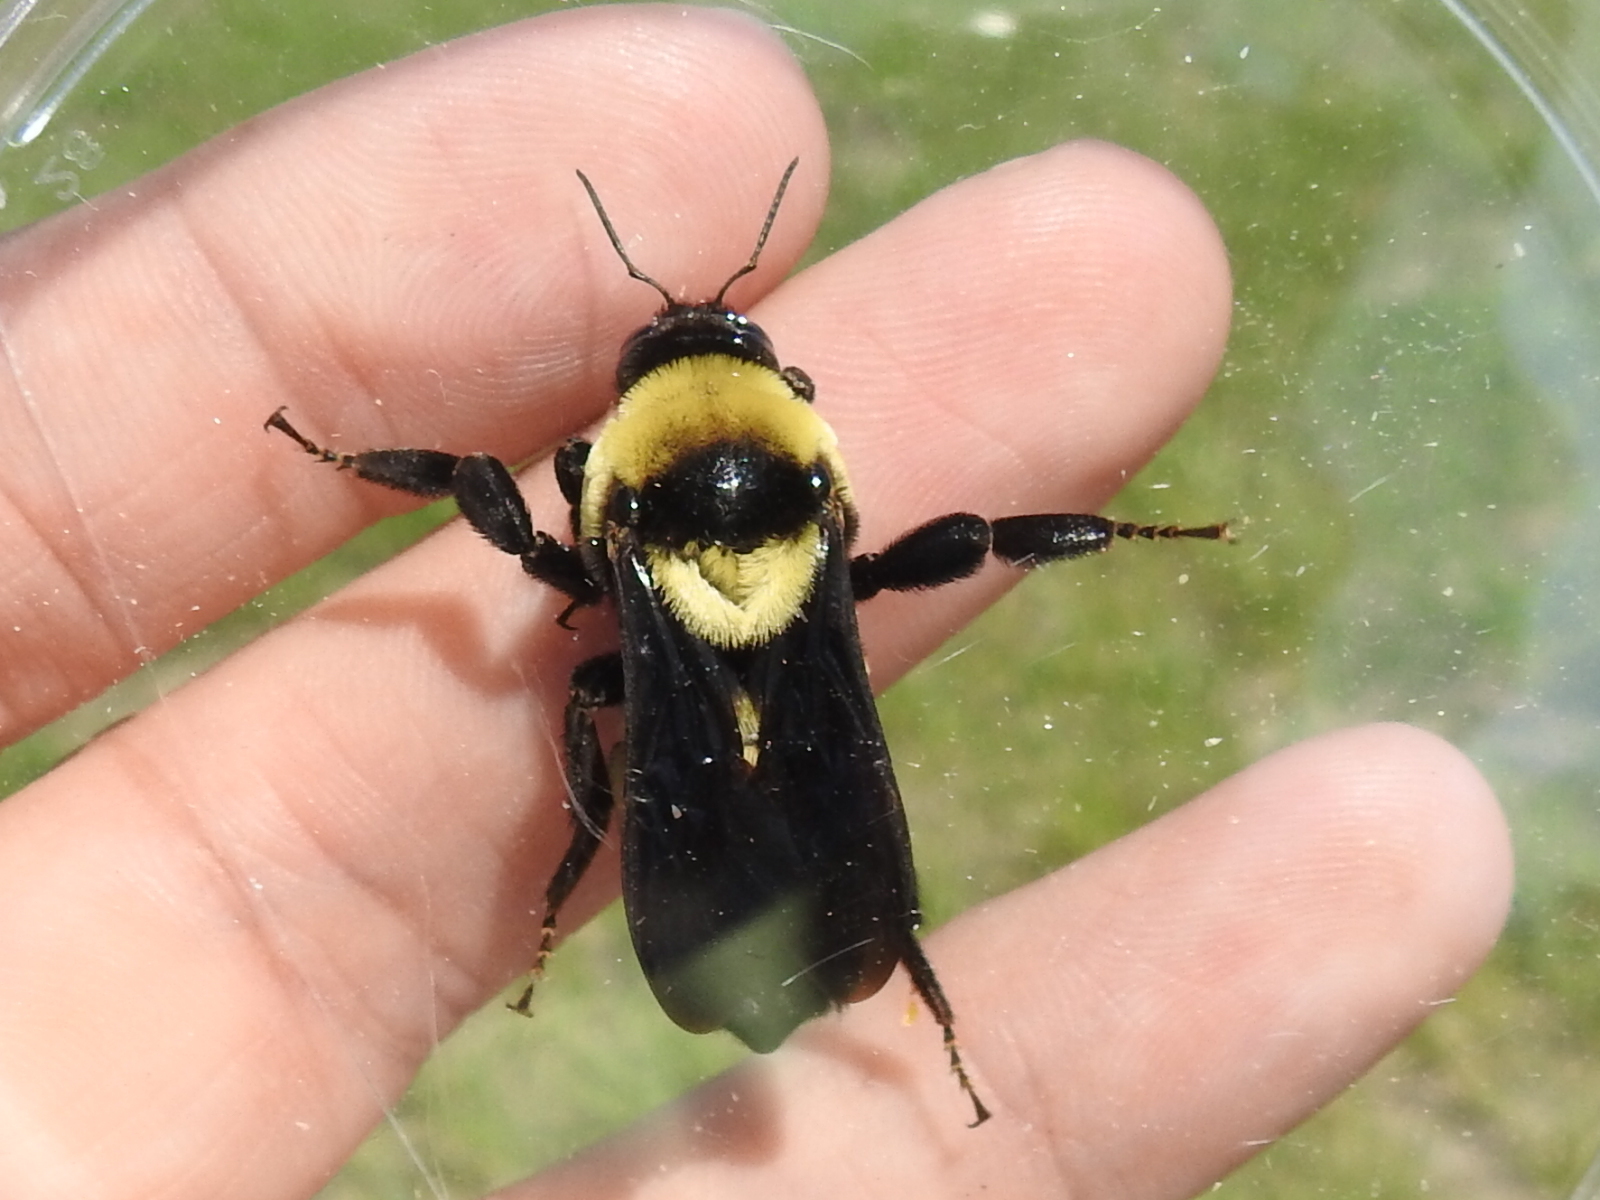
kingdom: Animalia
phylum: Arthropoda
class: Insecta
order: Hymenoptera
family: Apidae
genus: Bombus
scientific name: Bombus fraternus
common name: Southern plains bumble bee
